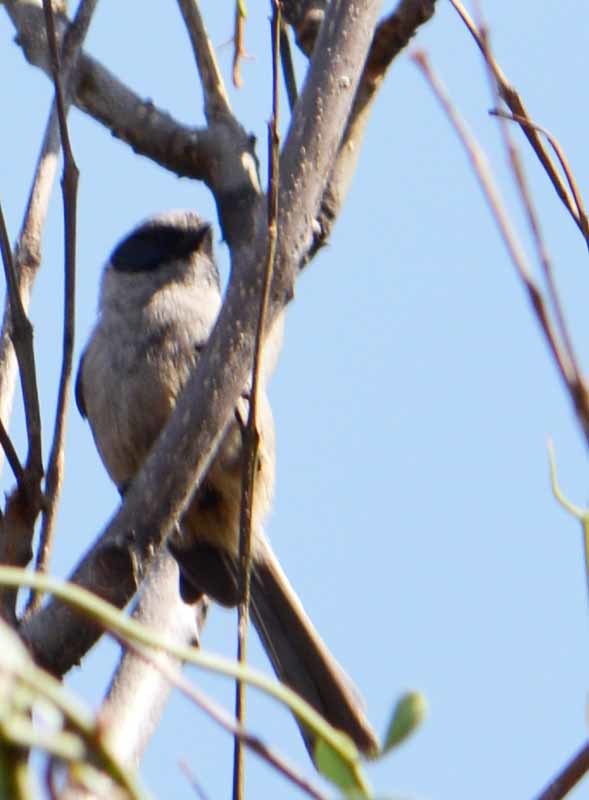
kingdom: Animalia
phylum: Chordata
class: Aves
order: Passeriformes
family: Aegithalidae
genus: Psaltriparus
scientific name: Psaltriparus minimus
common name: American bushtit
